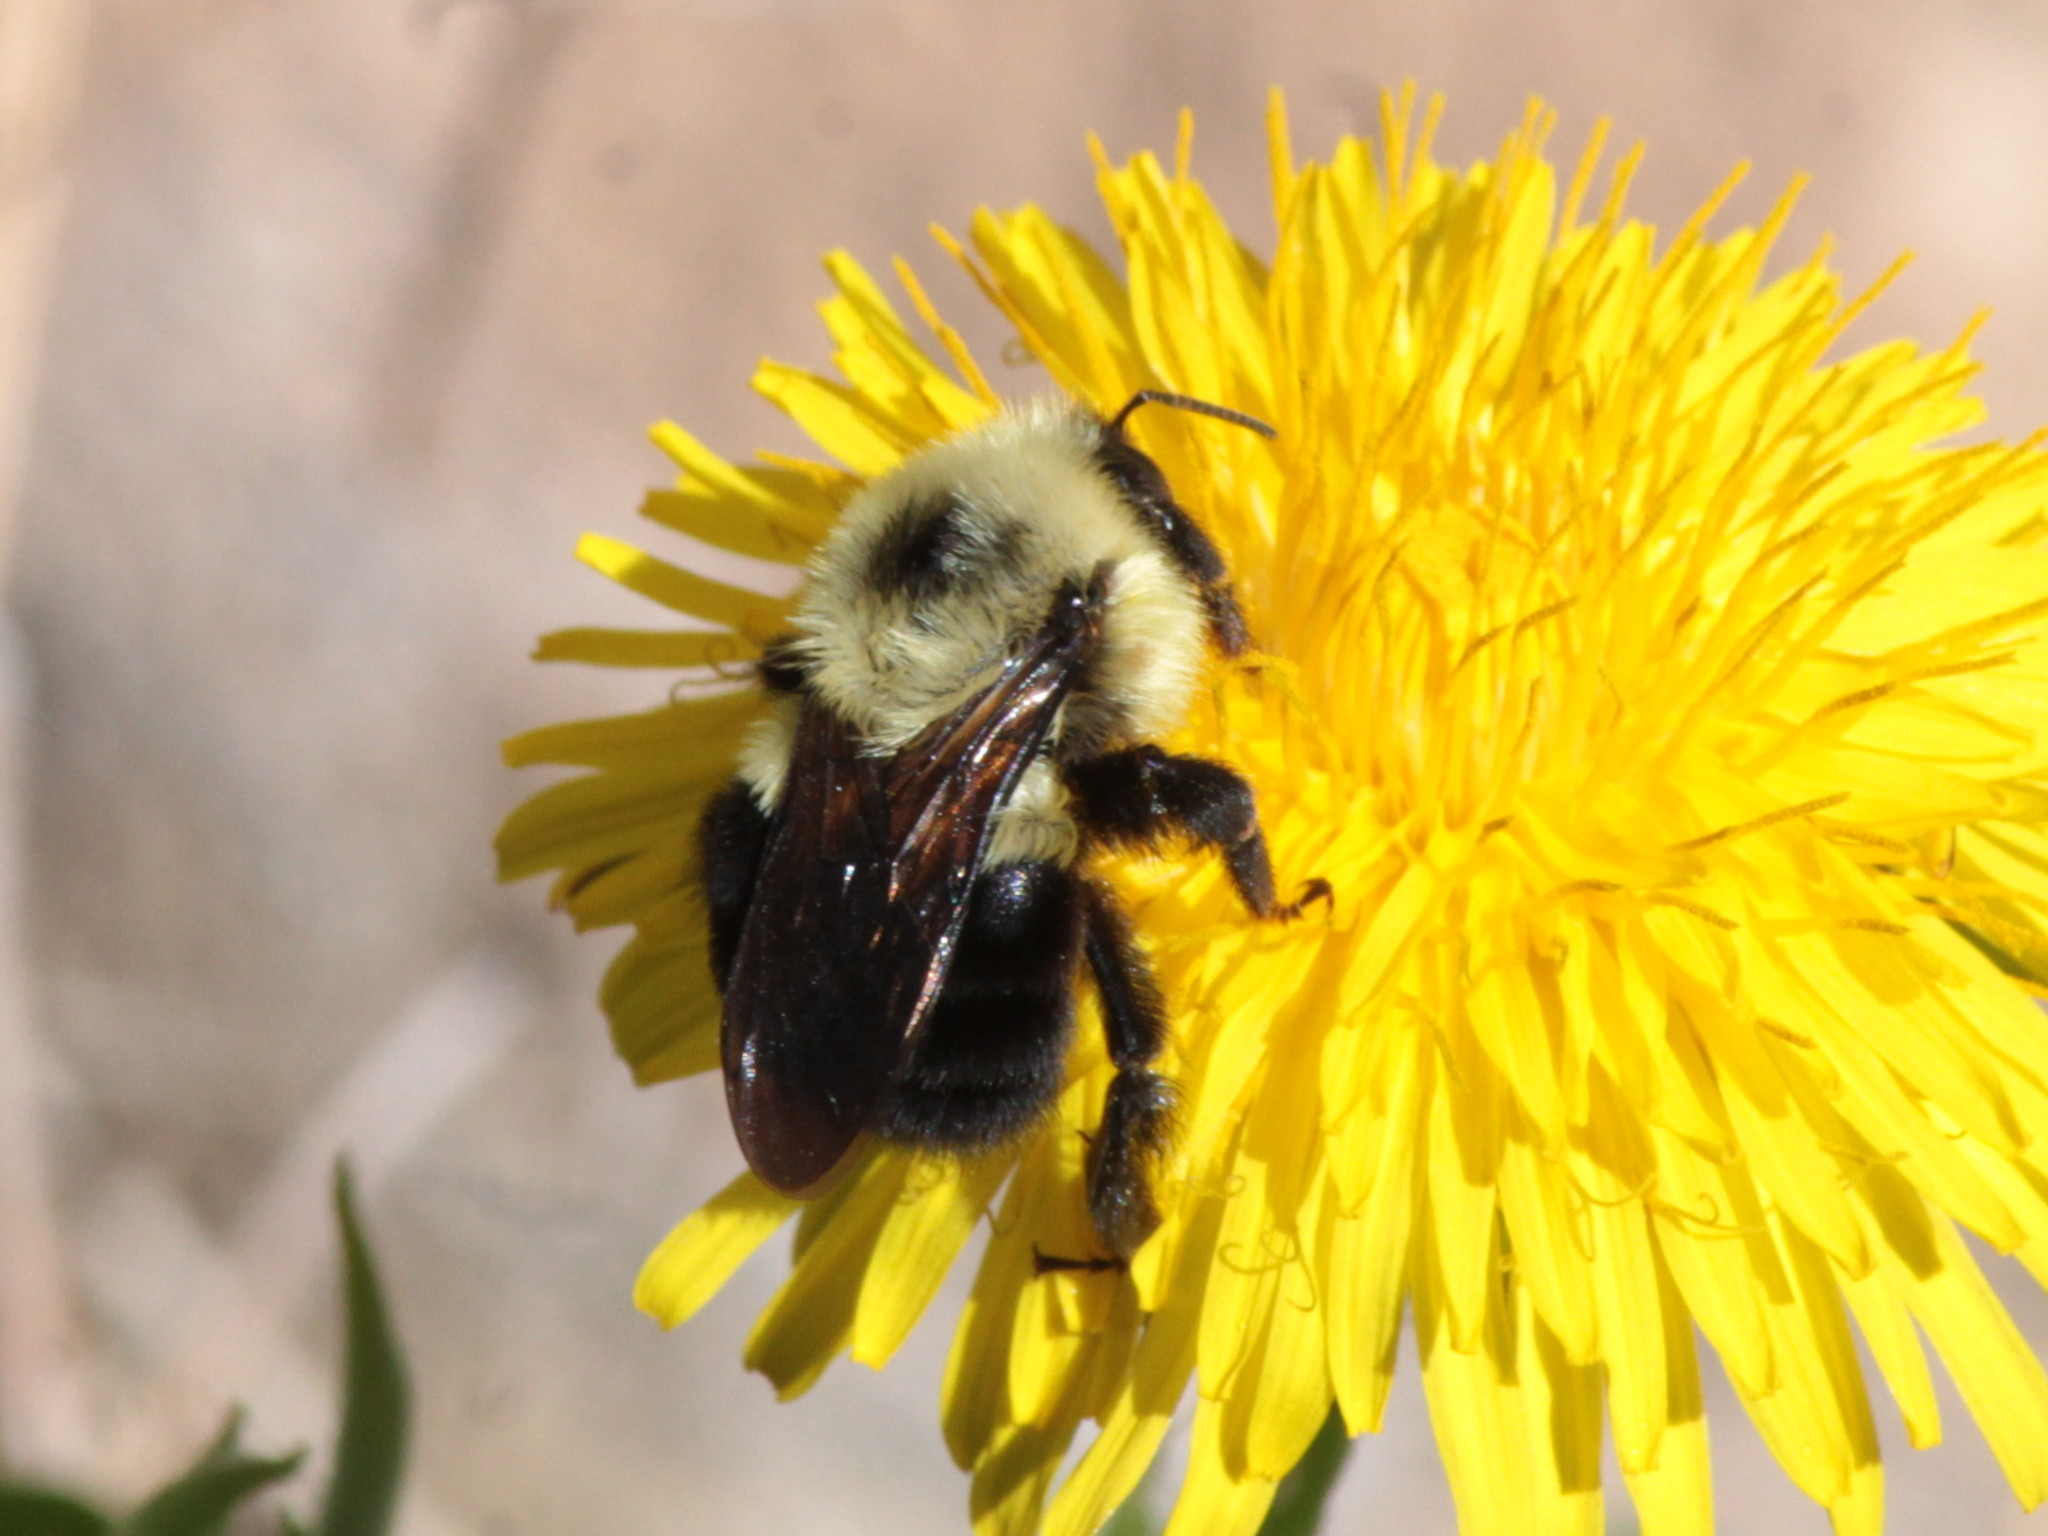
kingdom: Animalia
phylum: Arthropoda
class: Insecta
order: Hymenoptera
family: Apidae
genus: Bombus
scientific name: Bombus bimaculatus
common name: Two-spotted bumble bee
